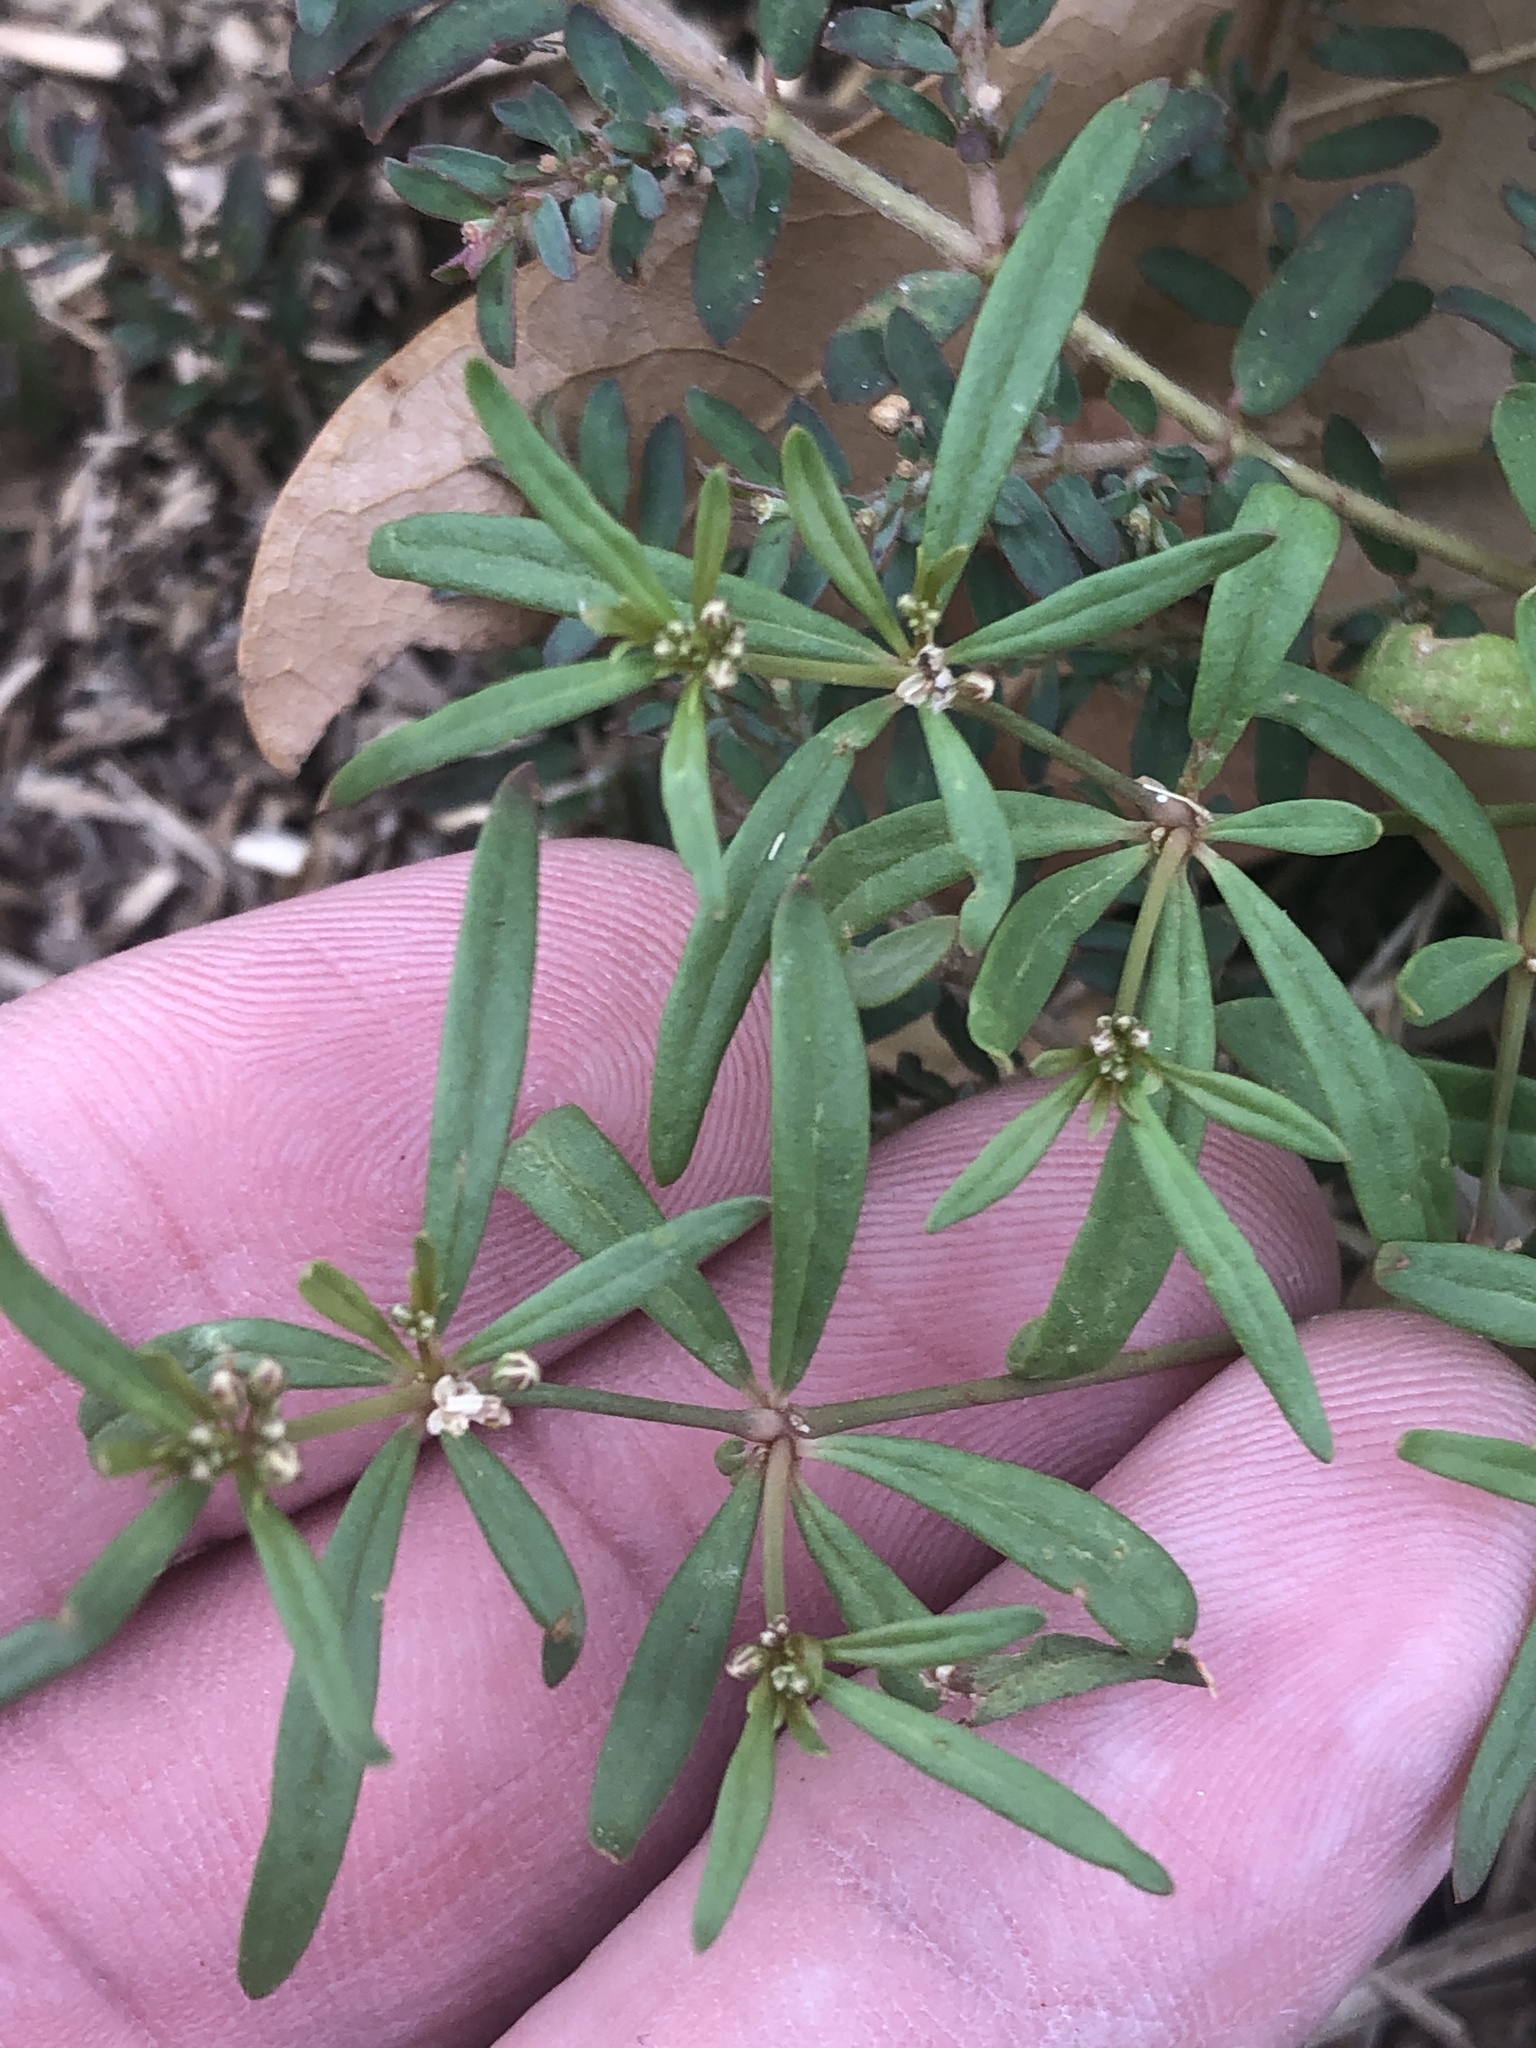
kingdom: Plantae
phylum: Tracheophyta
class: Magnoliopsida
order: Caryophyllales
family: Molluginaceae
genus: Mollugo
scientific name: Mollugo verticillata
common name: Green carpetweed
